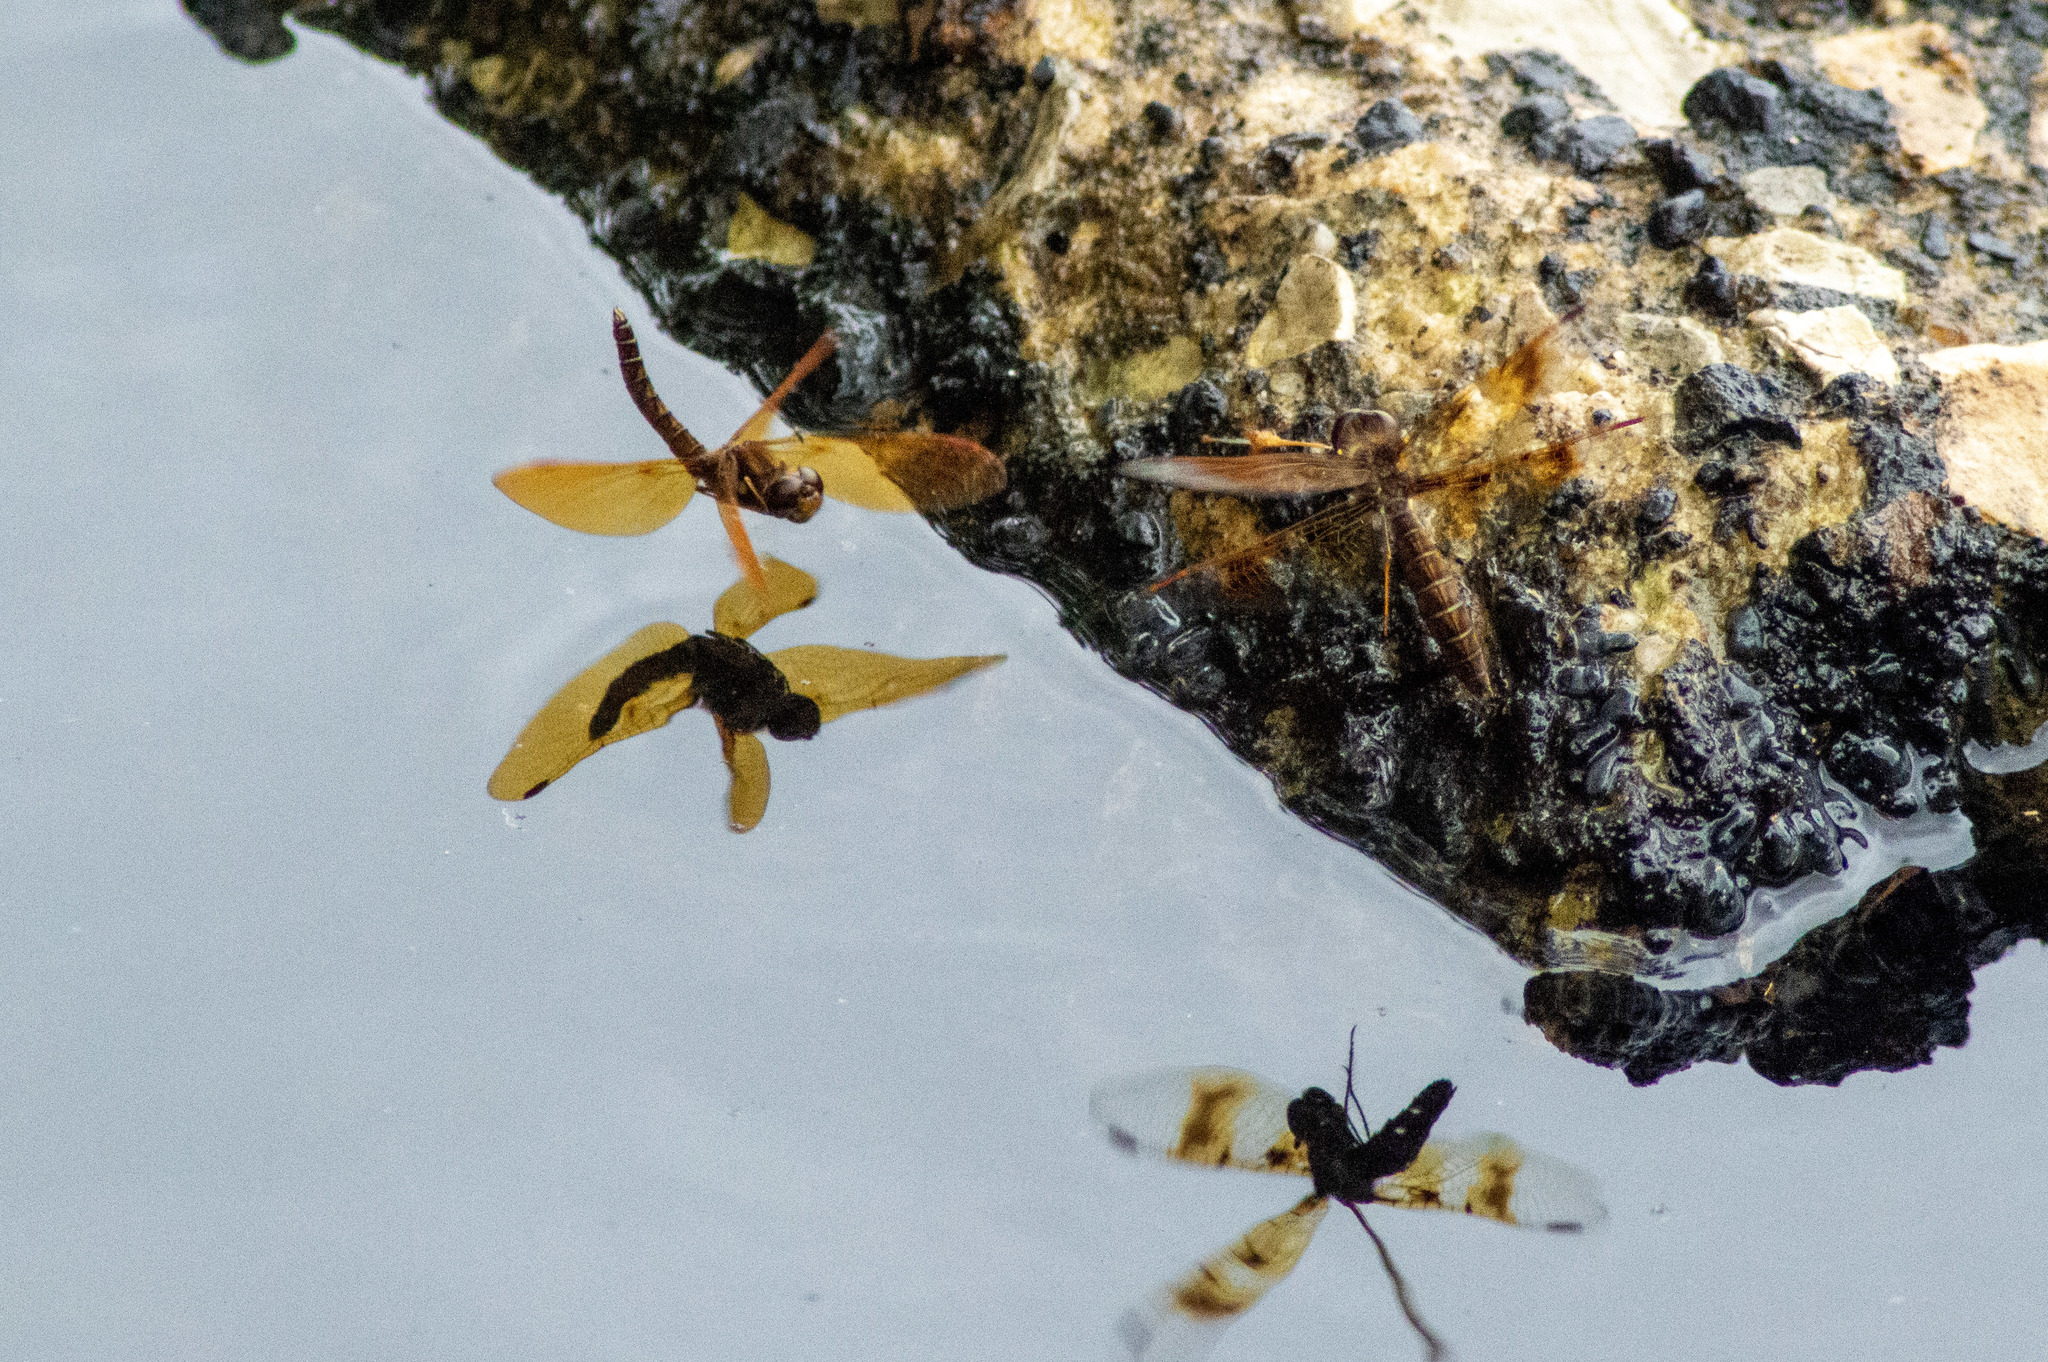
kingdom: Animalia
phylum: Arthropoda
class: Insecta
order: Odonata
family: Libellulidae
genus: Perithemis
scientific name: Perithemis tenera
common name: Eastern amberwing
